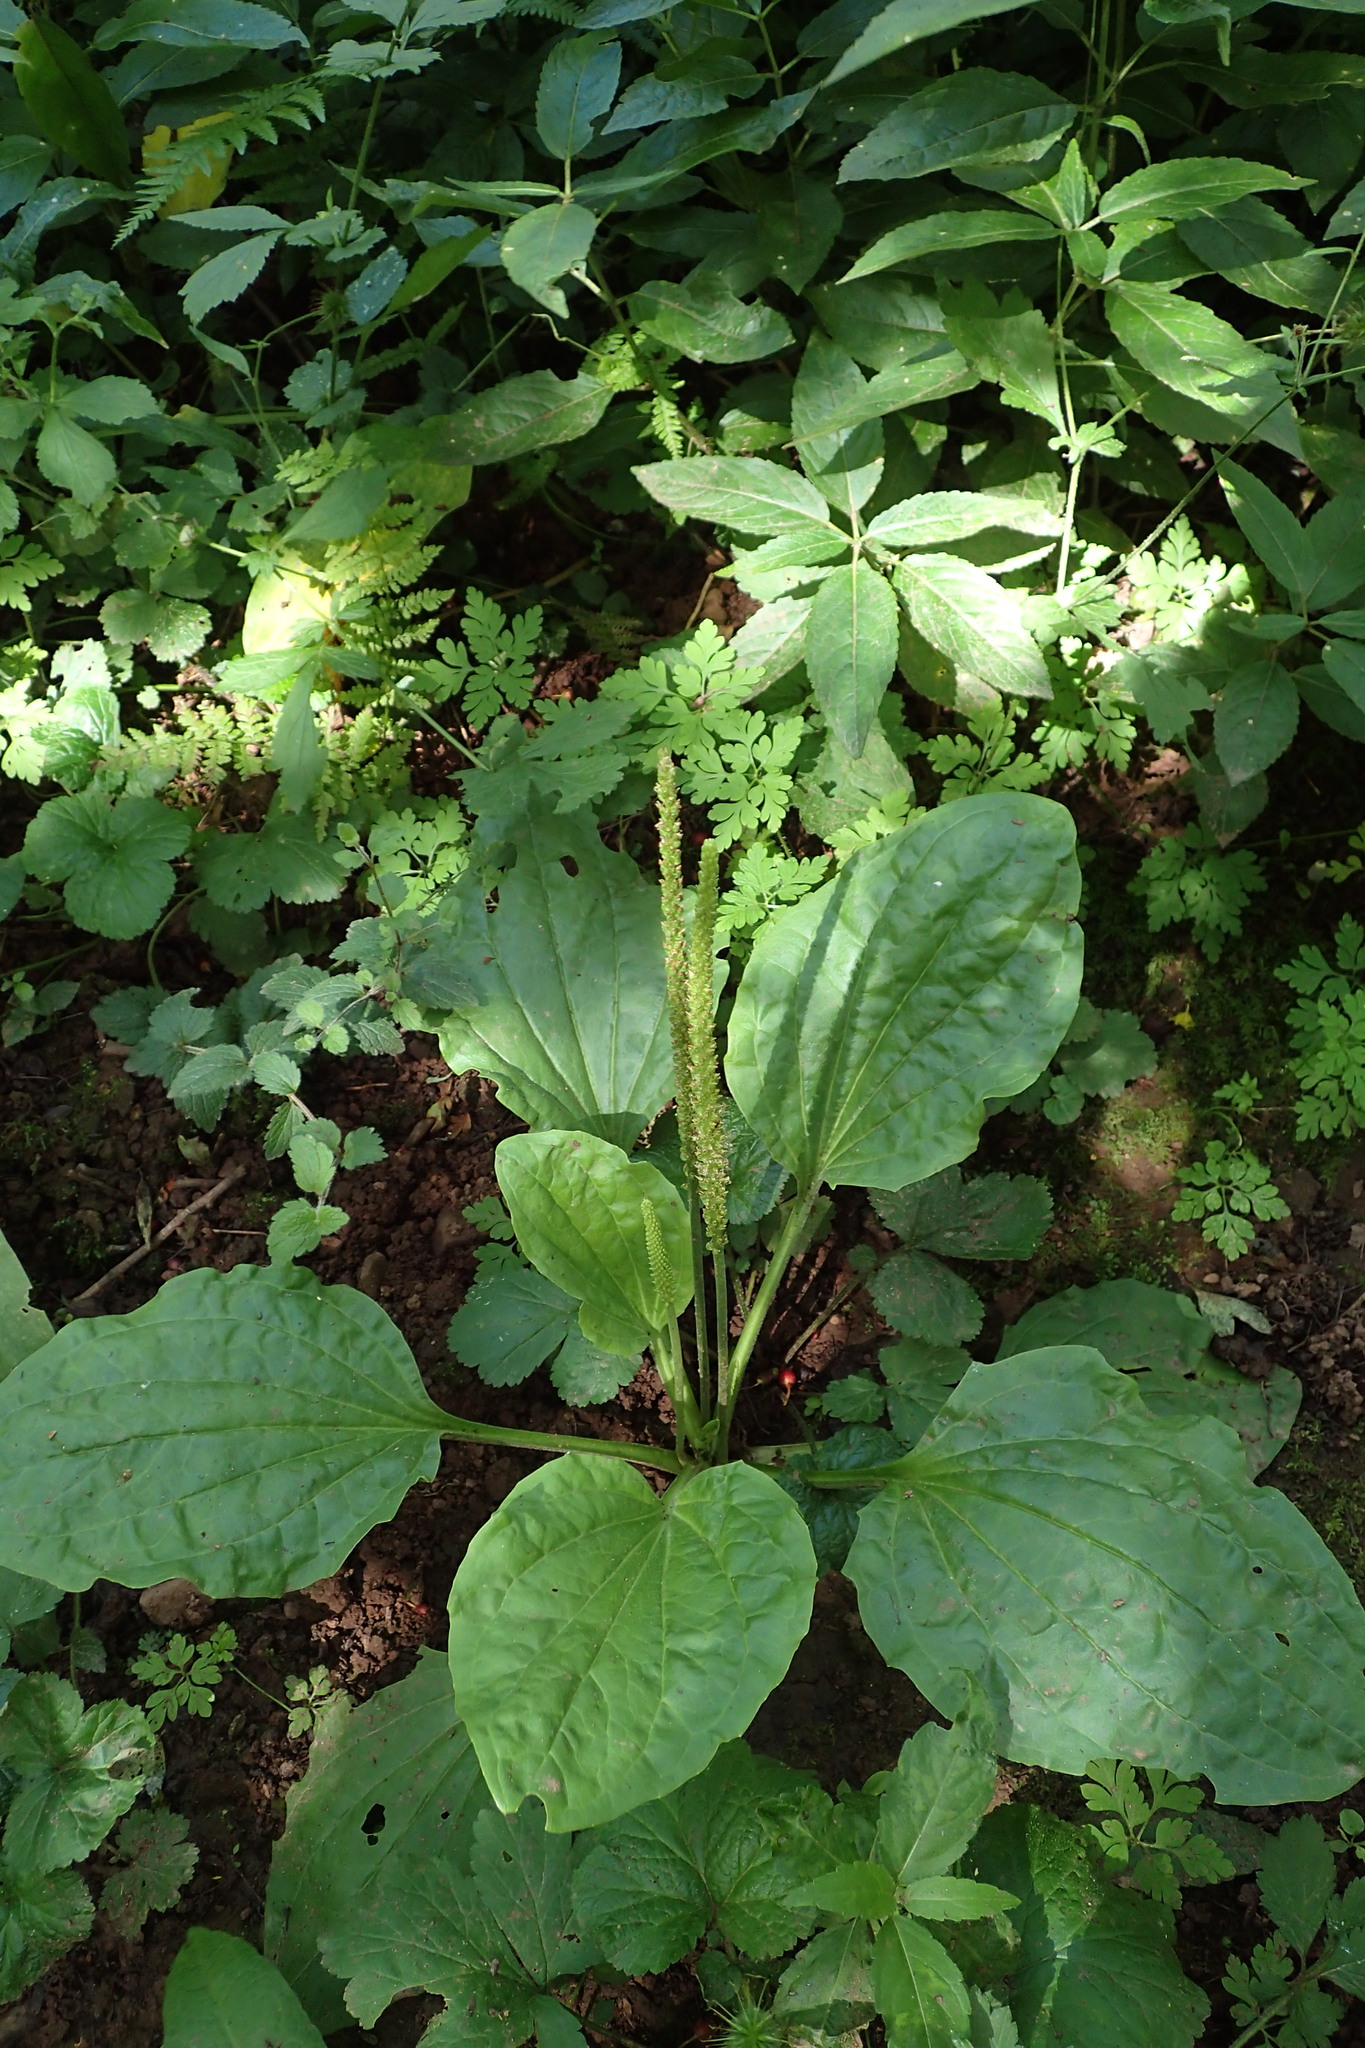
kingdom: Plantae
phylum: Tracheophyta
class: Magnoliopsida
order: Lamiales
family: Plantaginaceae
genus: Plantago
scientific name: Plantago major
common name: Common plantain
